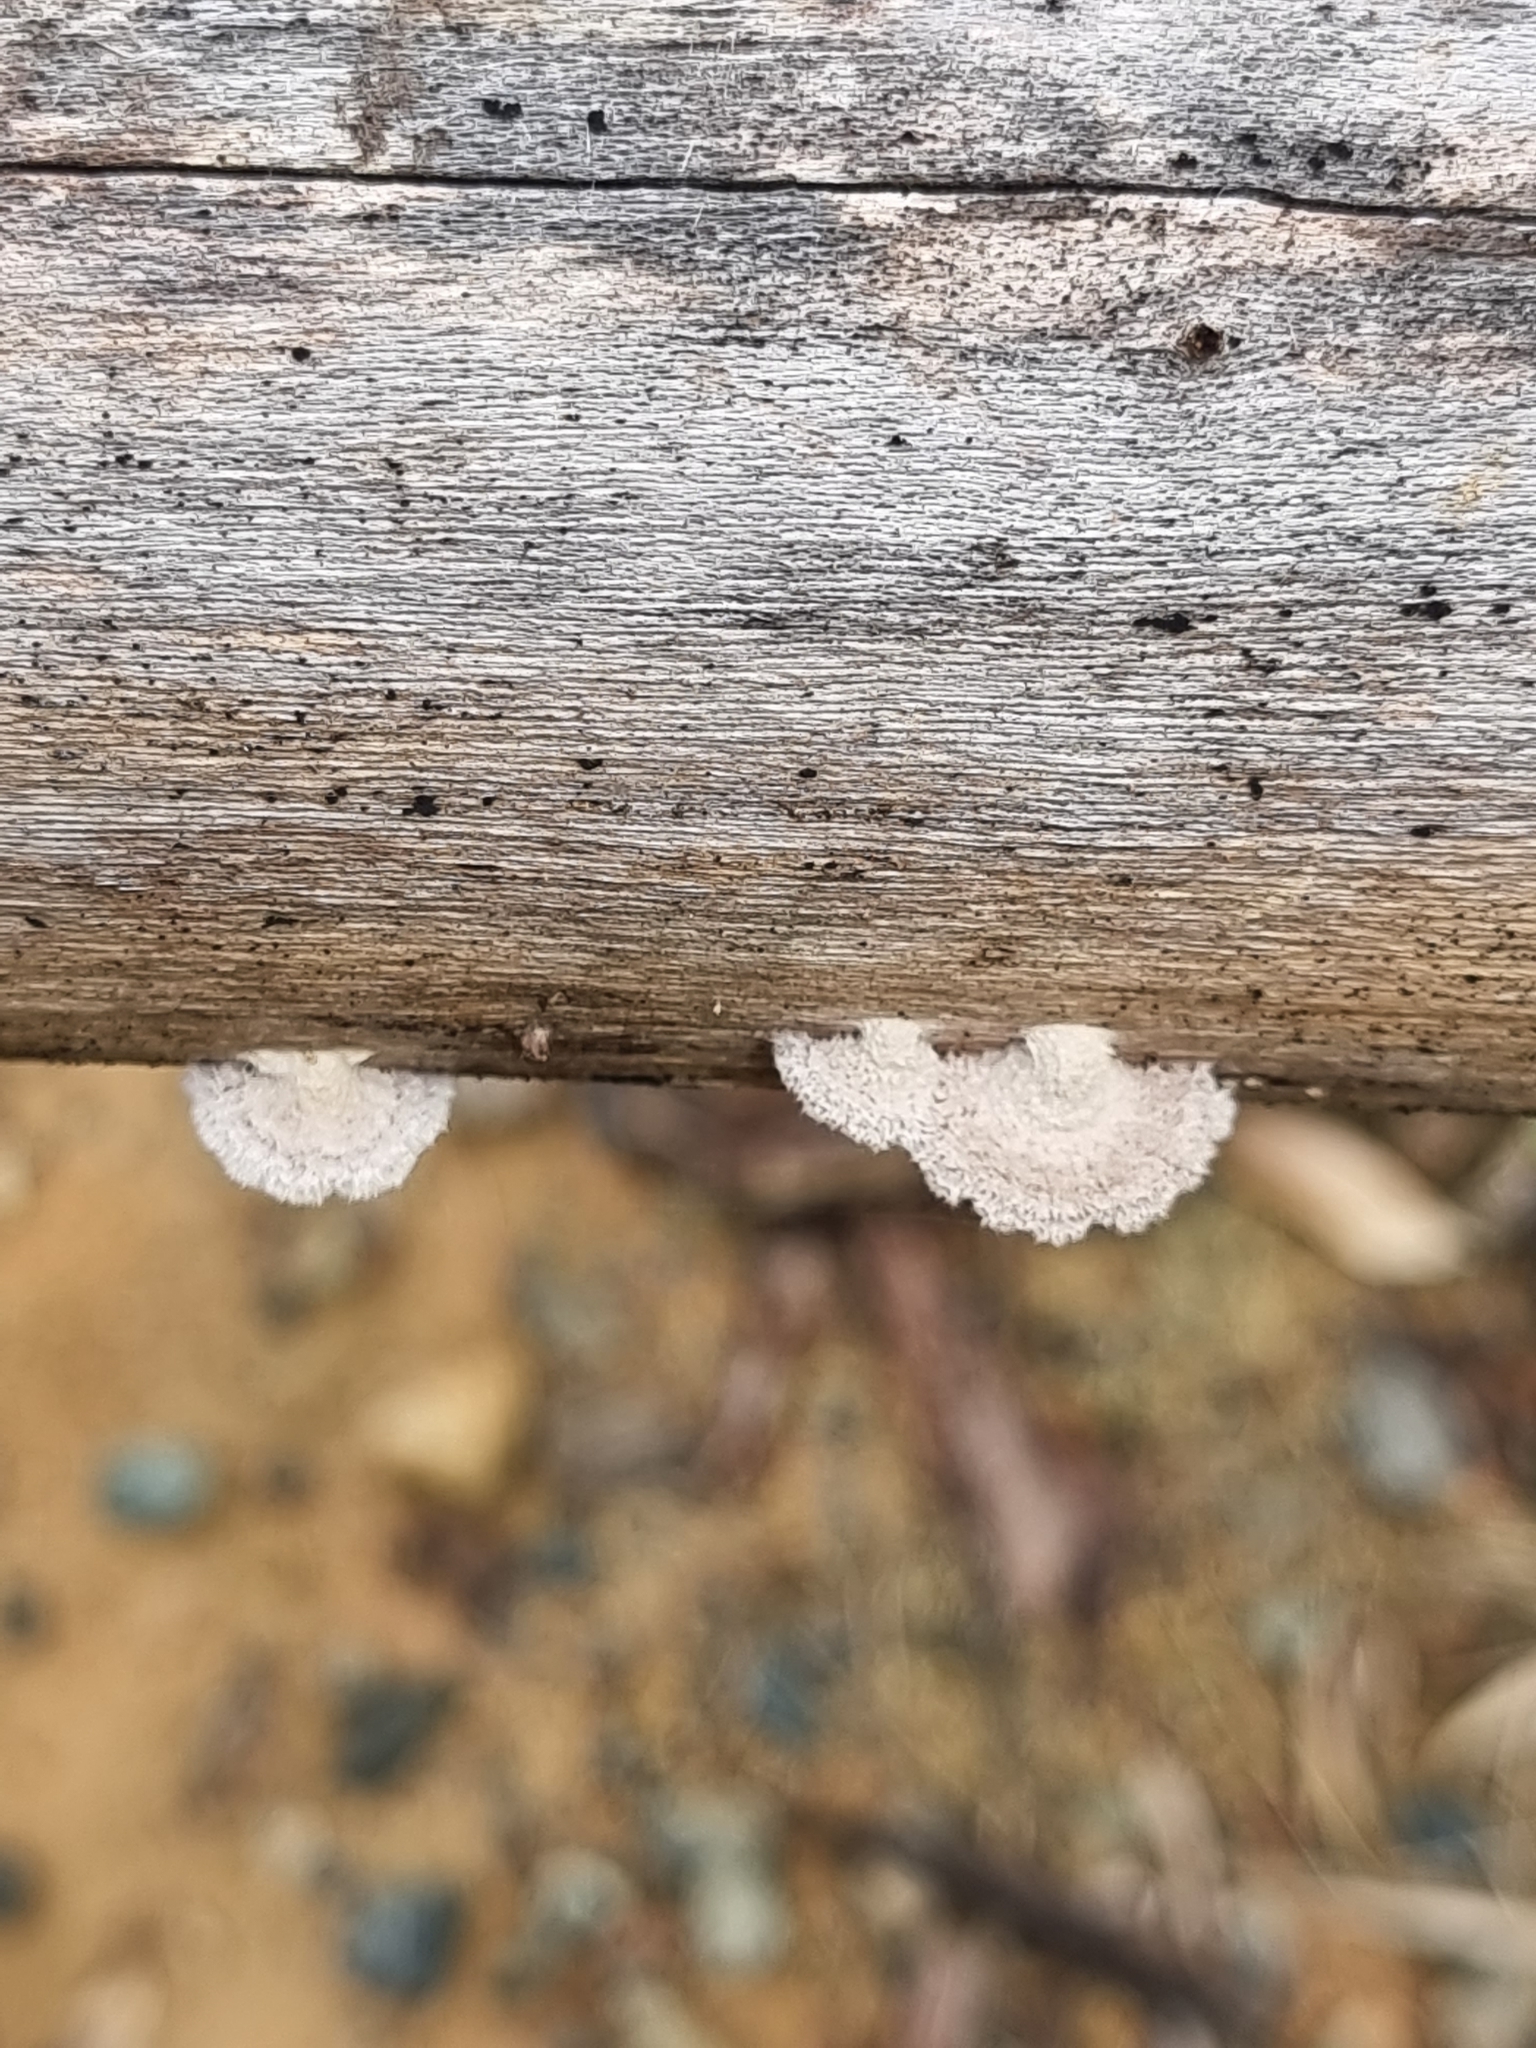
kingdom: Fungi
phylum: Basidiomycota
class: Agaricomycetes
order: Agaricales
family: Schizophyllaceae
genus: Schizophyllum
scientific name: Schizophyllum commune
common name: Common porecrust
